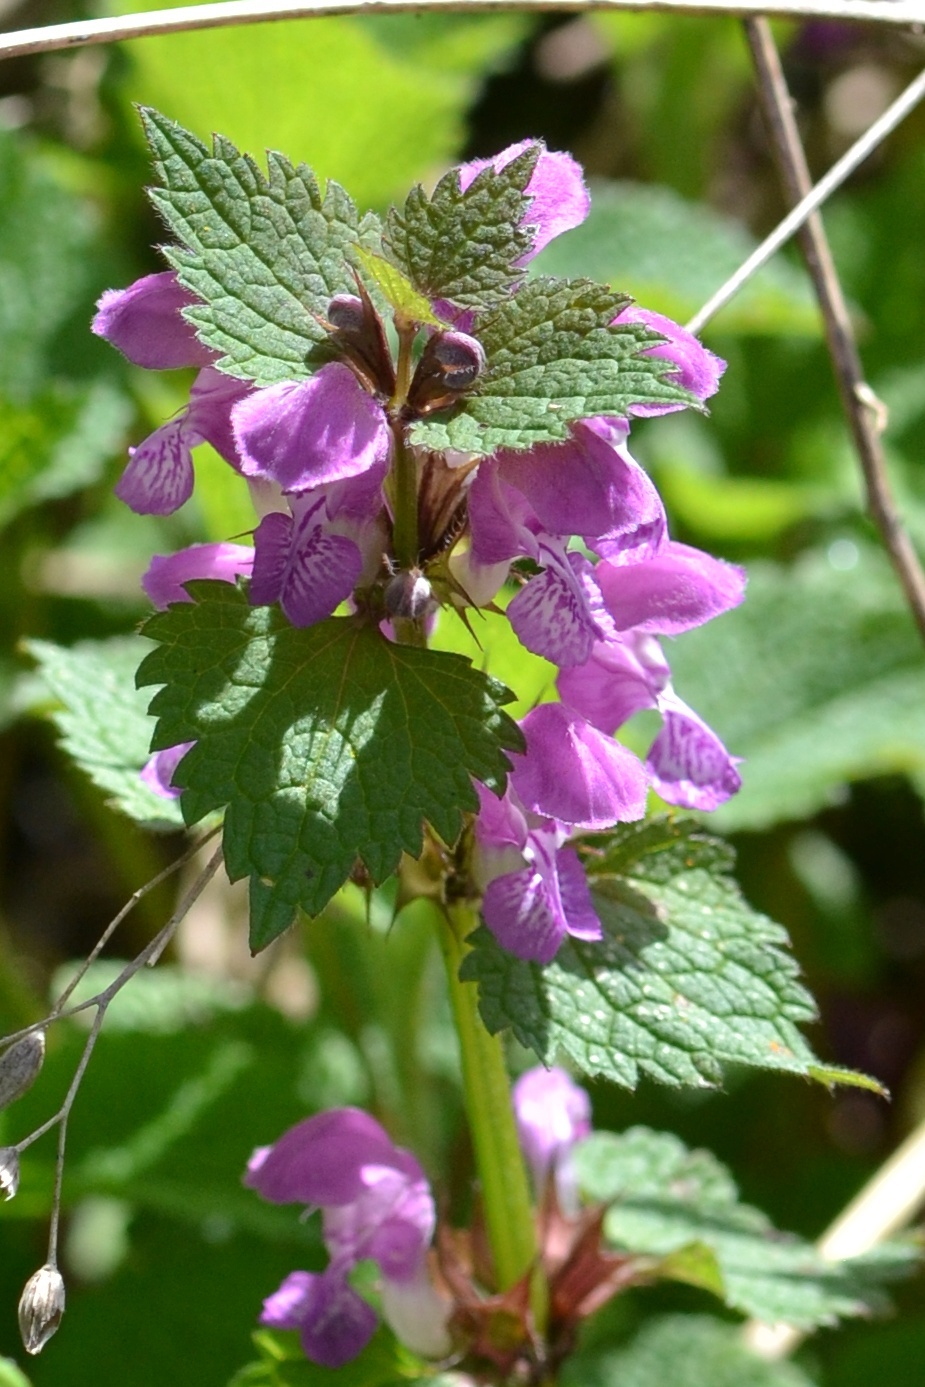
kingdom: Plantae
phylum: Tracheophyta
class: Magnoliopsida
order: Lamiales
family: Lamiaceae
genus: Lamium
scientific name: Lamium maculatum
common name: Spotted dead-nettle
